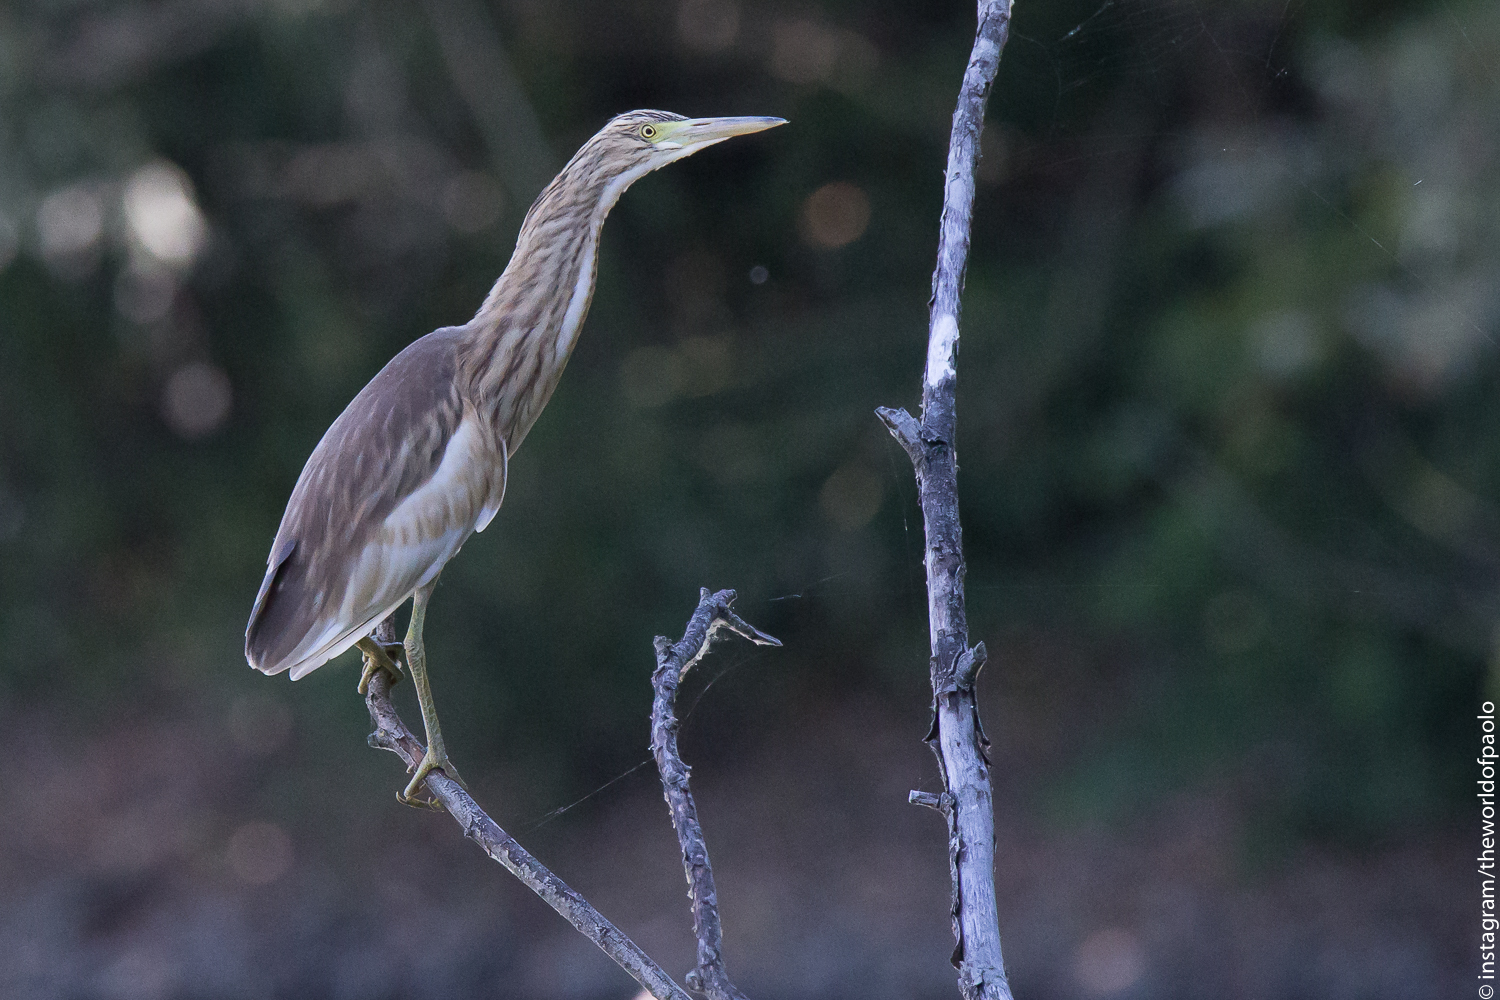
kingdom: Animalia
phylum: Chordata
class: Aves
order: Pelecaniformes
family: Ardeidae
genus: Ardeola
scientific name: Ardeola ralloides
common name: Squacco heron
